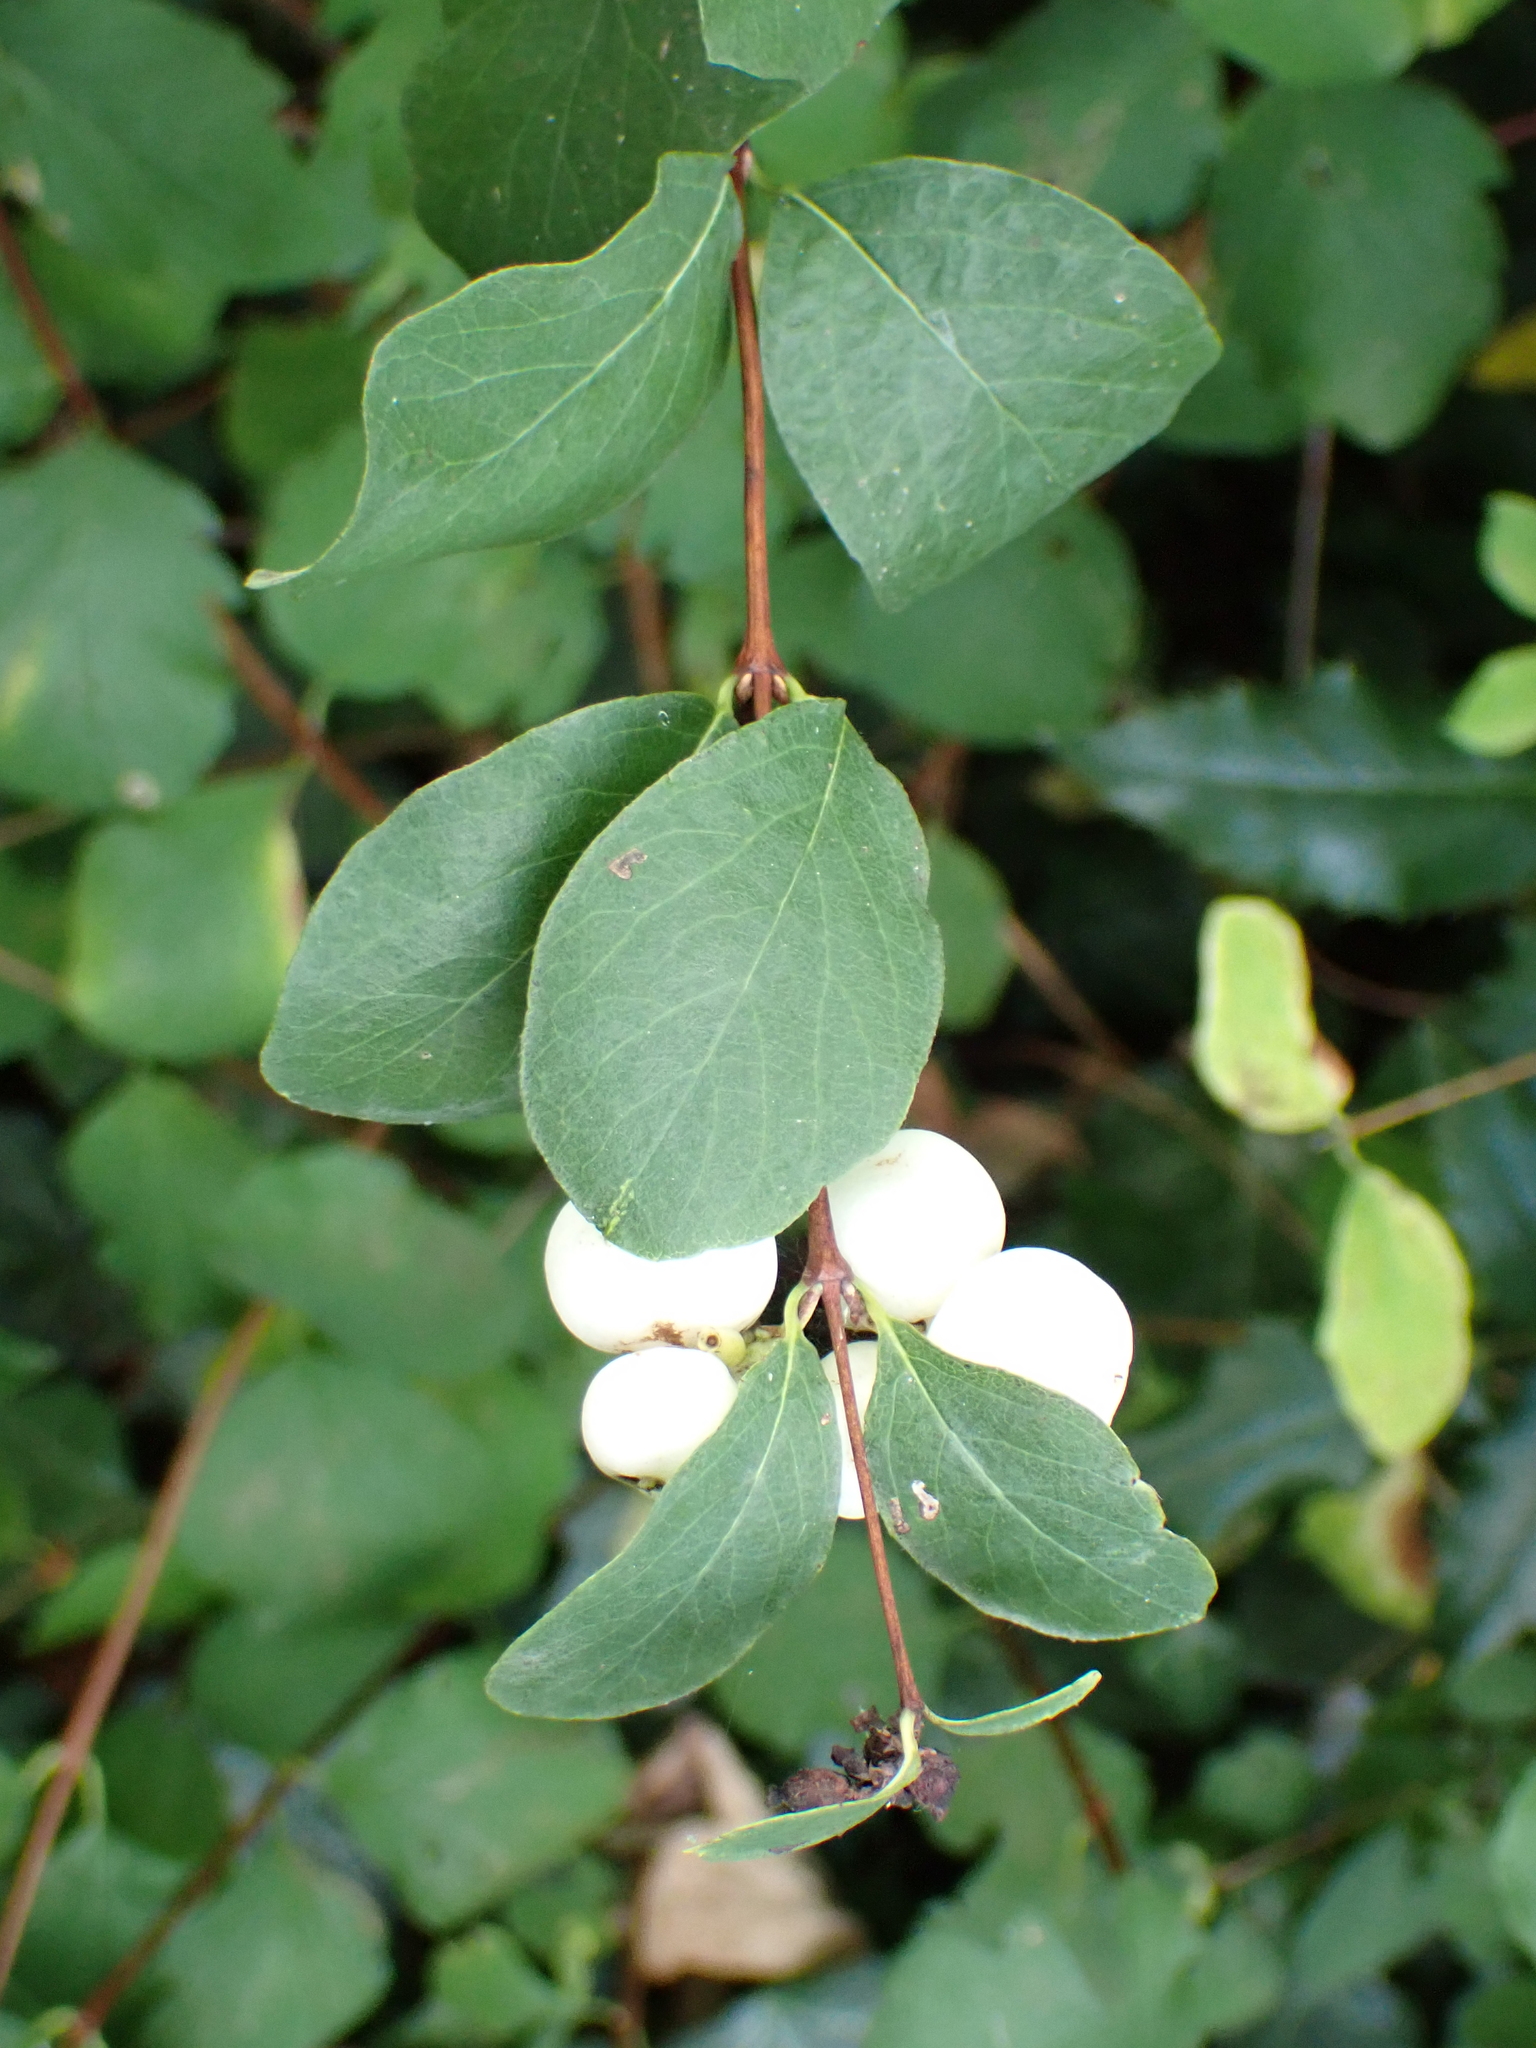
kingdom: Plantae
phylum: Tracheophyta
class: Magnoliopsida
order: Dipsacales
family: Caprifoliaceae
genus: Symphoricarpos
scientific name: Symphoricarpos albus
